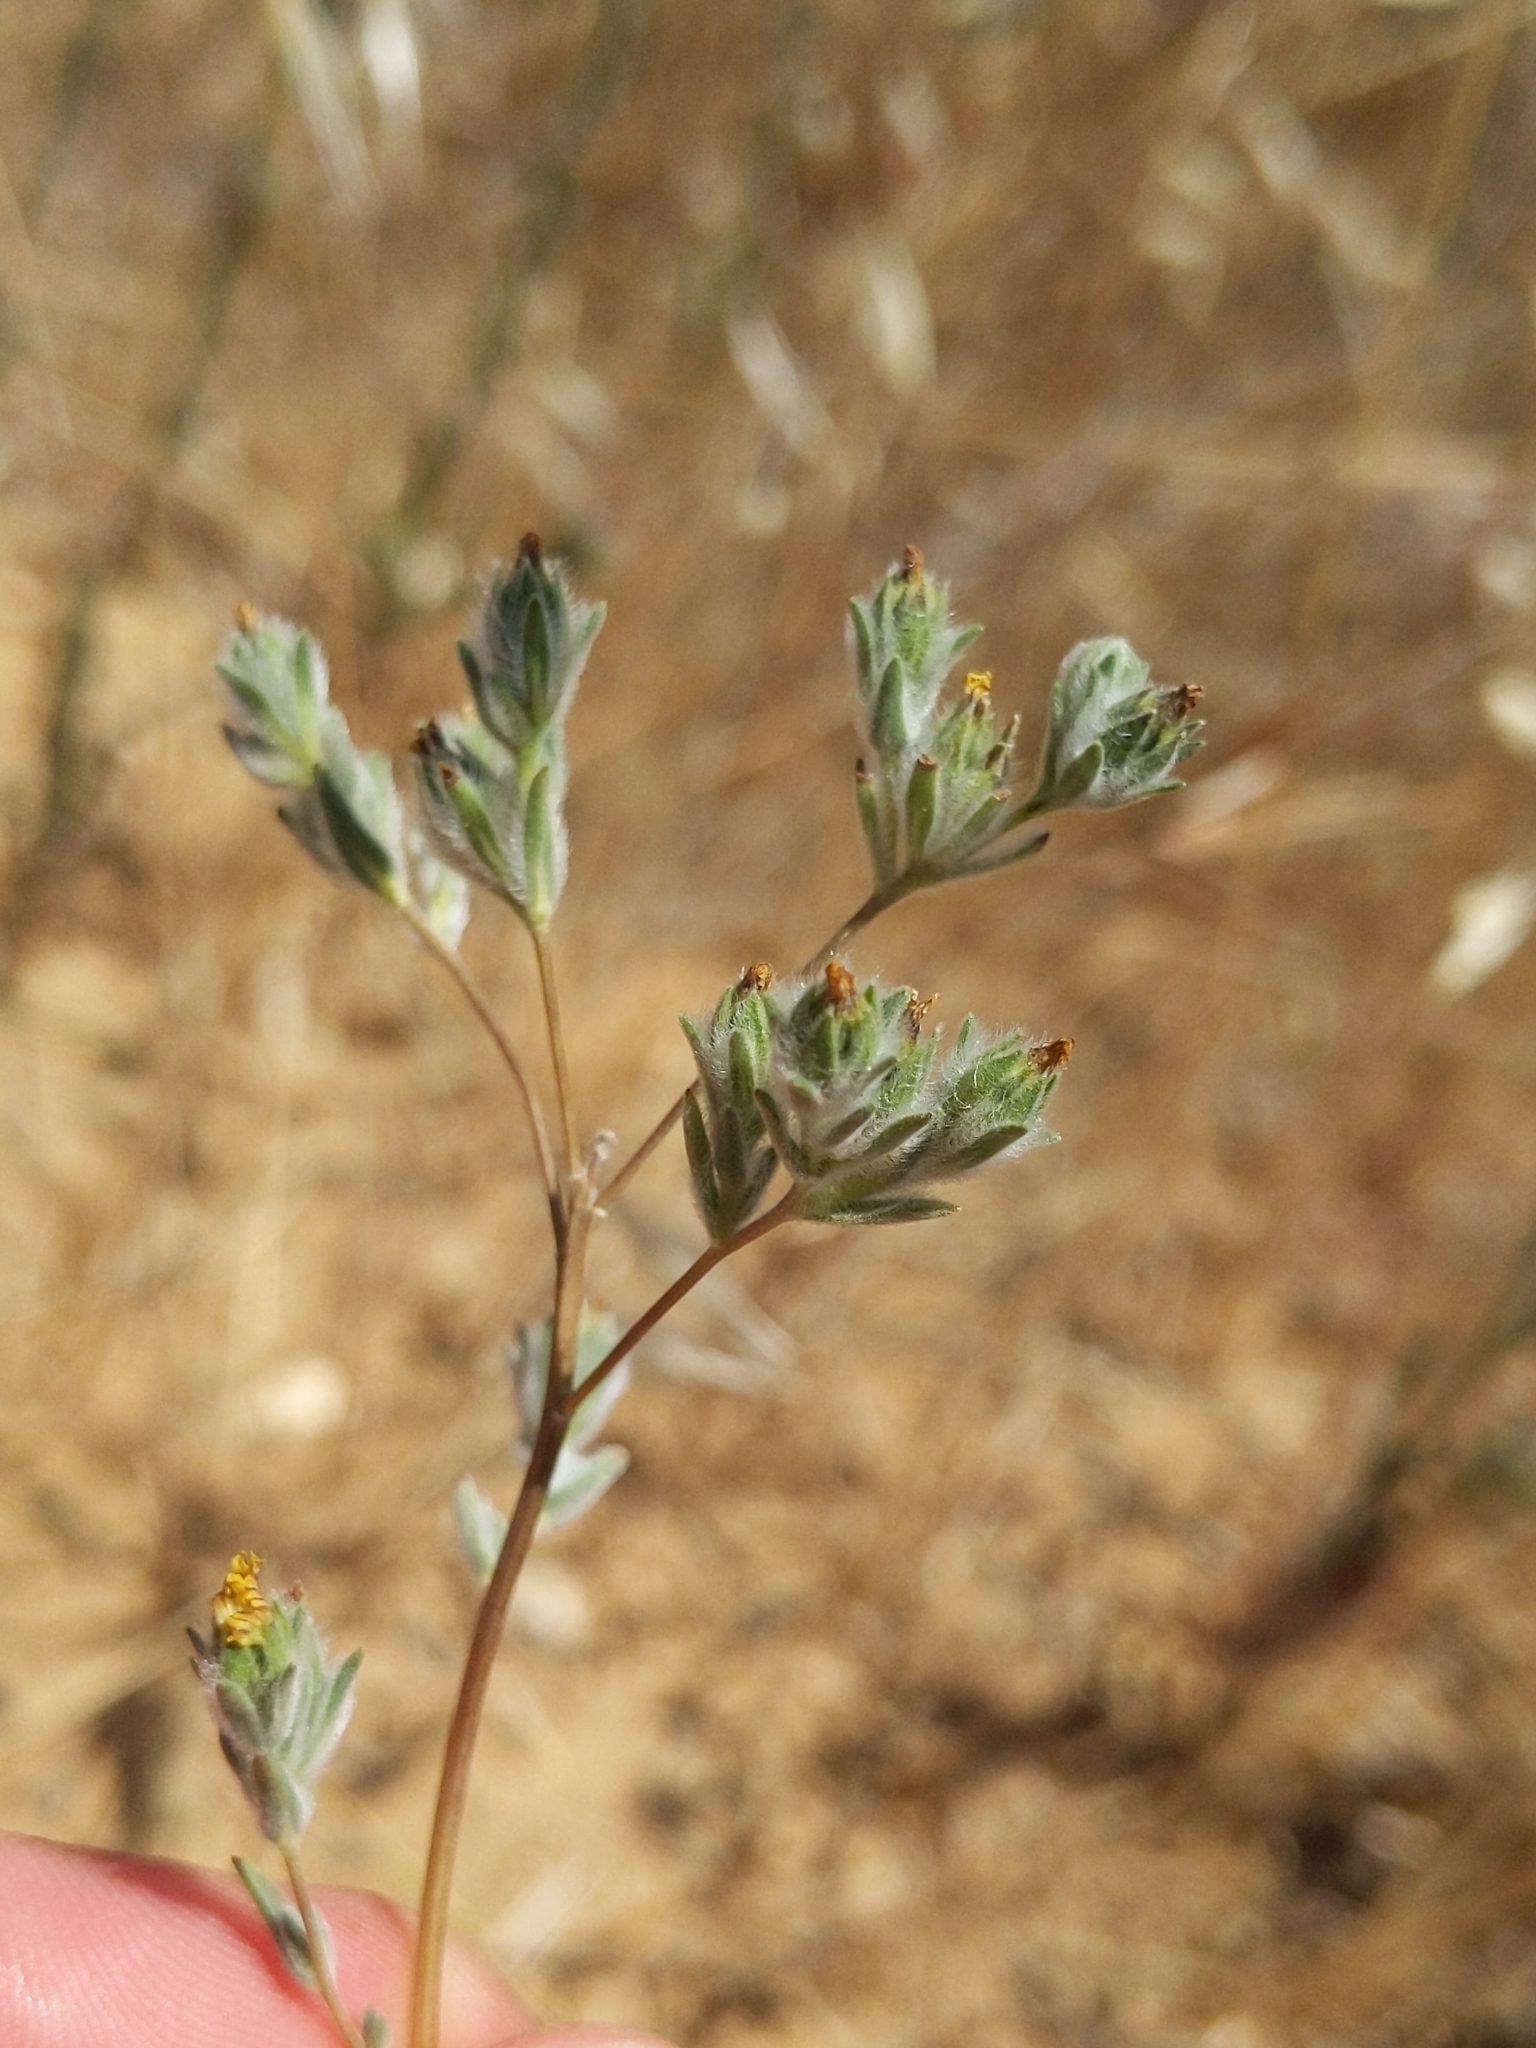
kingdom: Plantae
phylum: Tracheophyta
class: Magnoliopsida
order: Asterales
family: Asteraceae
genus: Lagophylla
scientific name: Lagophylla ramosissima
